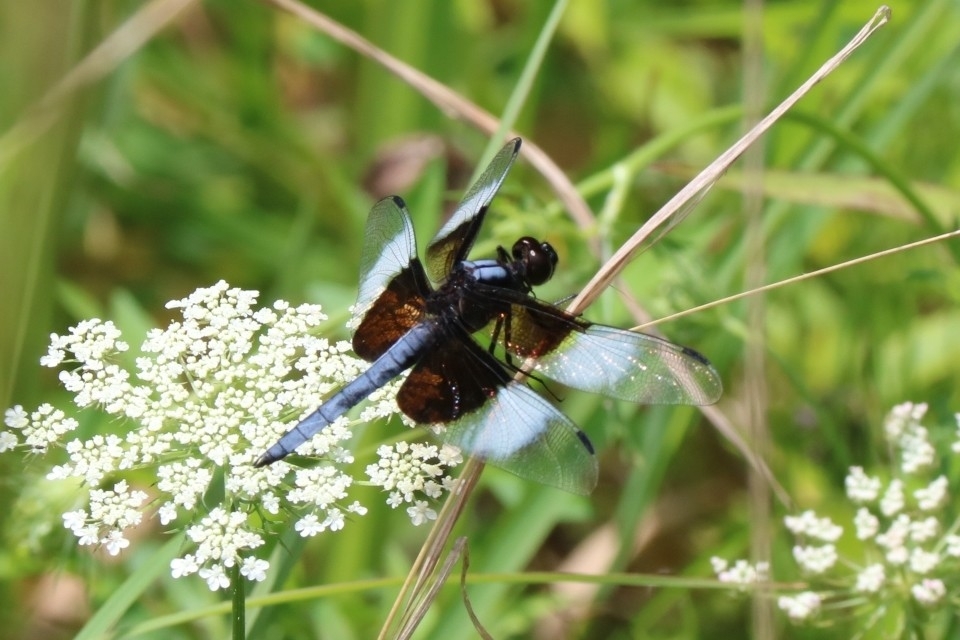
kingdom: Animalia
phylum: Arthropoda
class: Insecta
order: Odonata
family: Libellulidae
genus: Libellula
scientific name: Libellula luctuosa
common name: Widow skimmer
